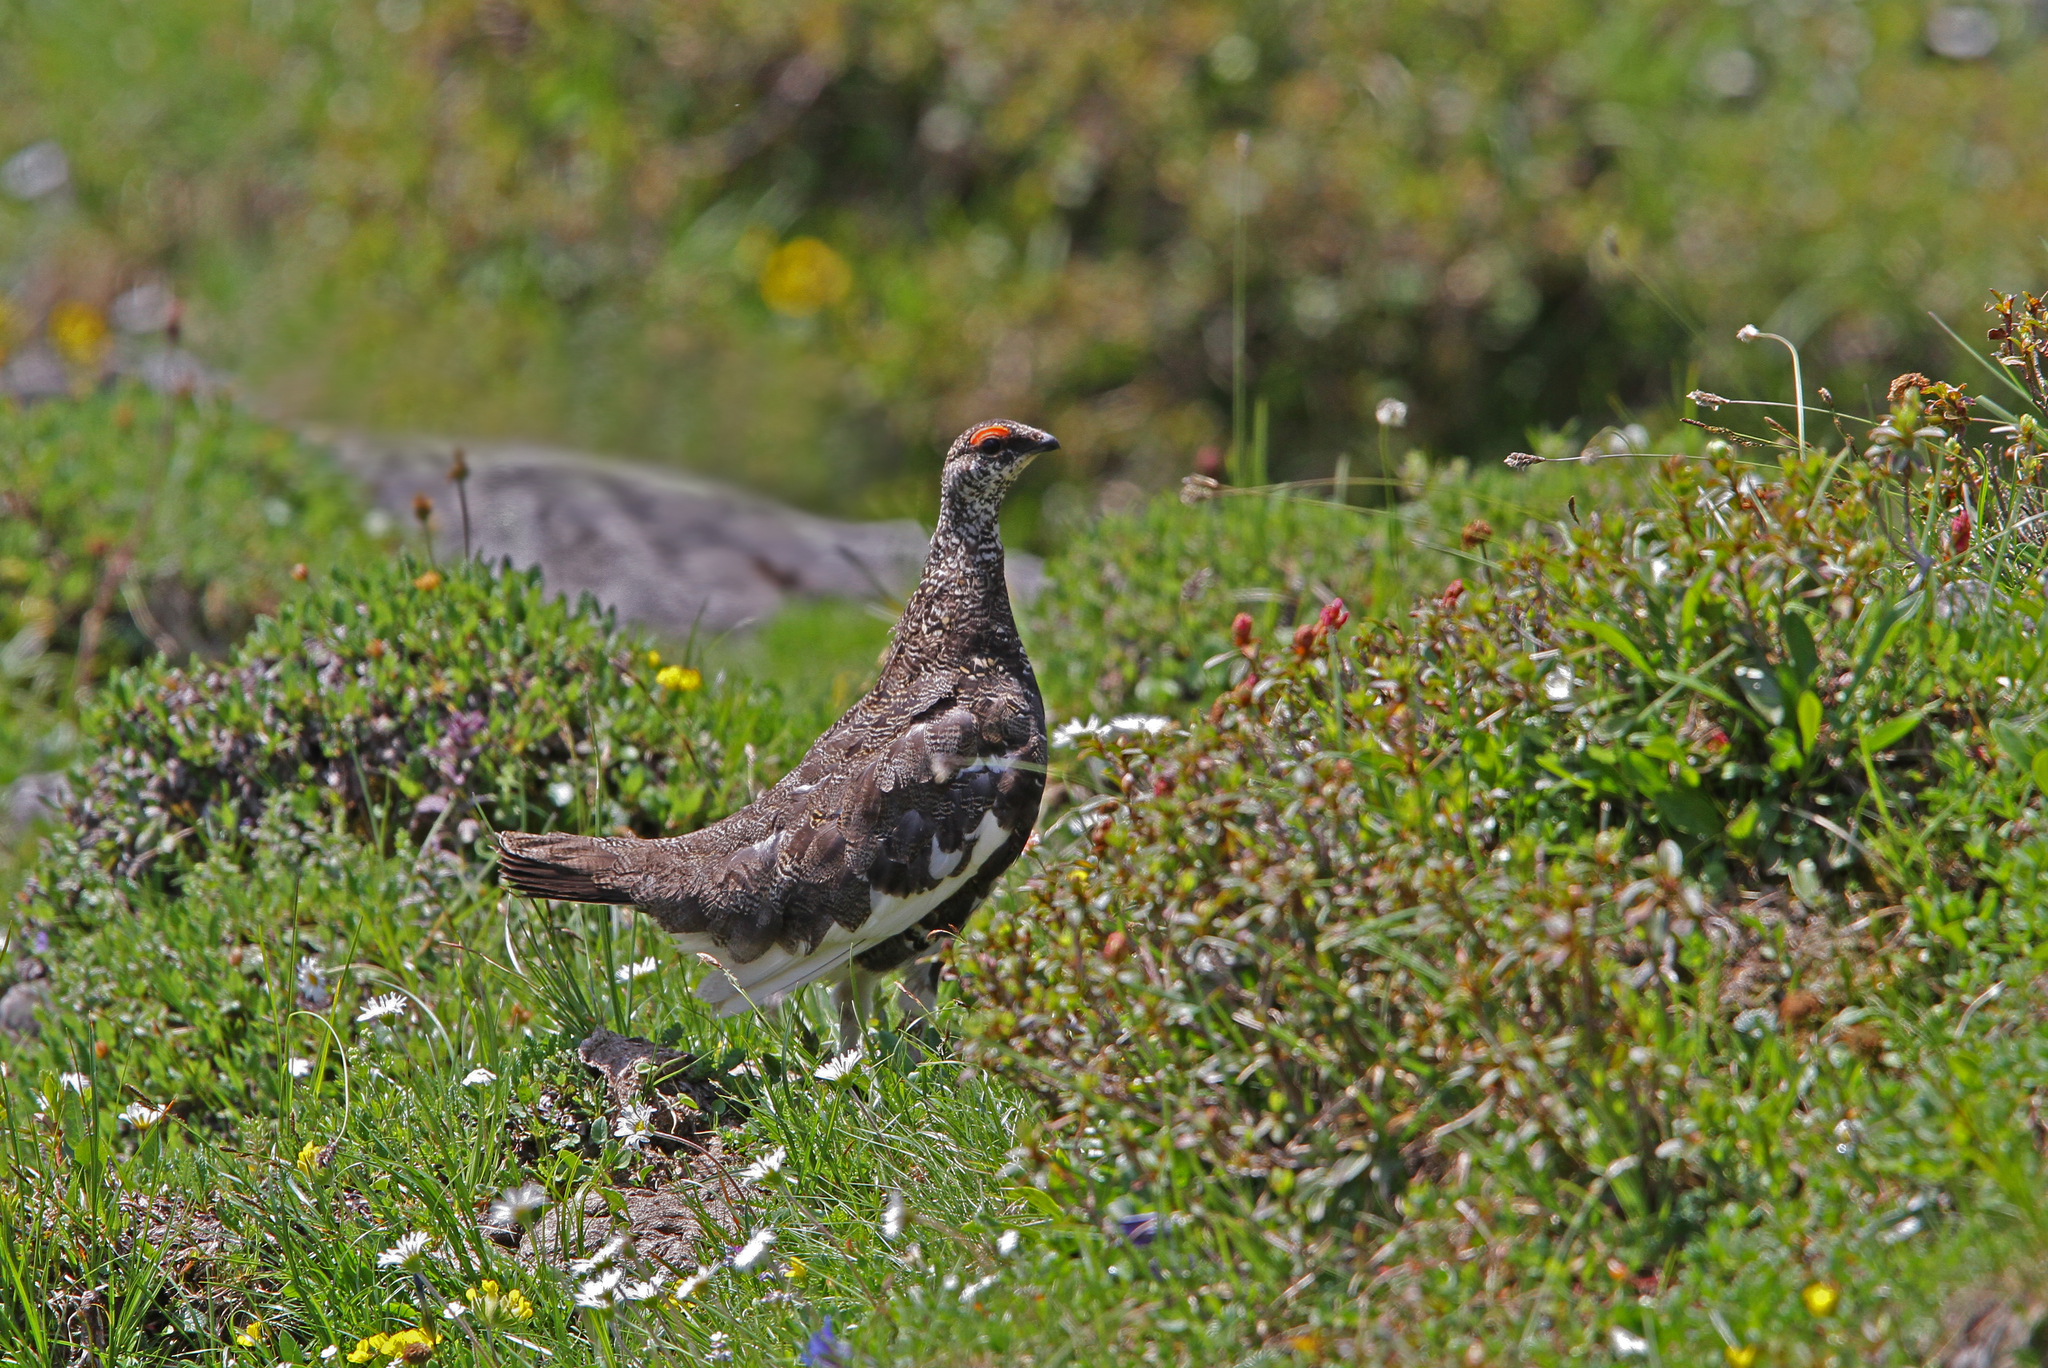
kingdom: Animalia
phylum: Chordata
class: Aves
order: Galliformes
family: Phasianidae
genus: Lagopus
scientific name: Lagopus muta
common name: Rock ptarmigan
